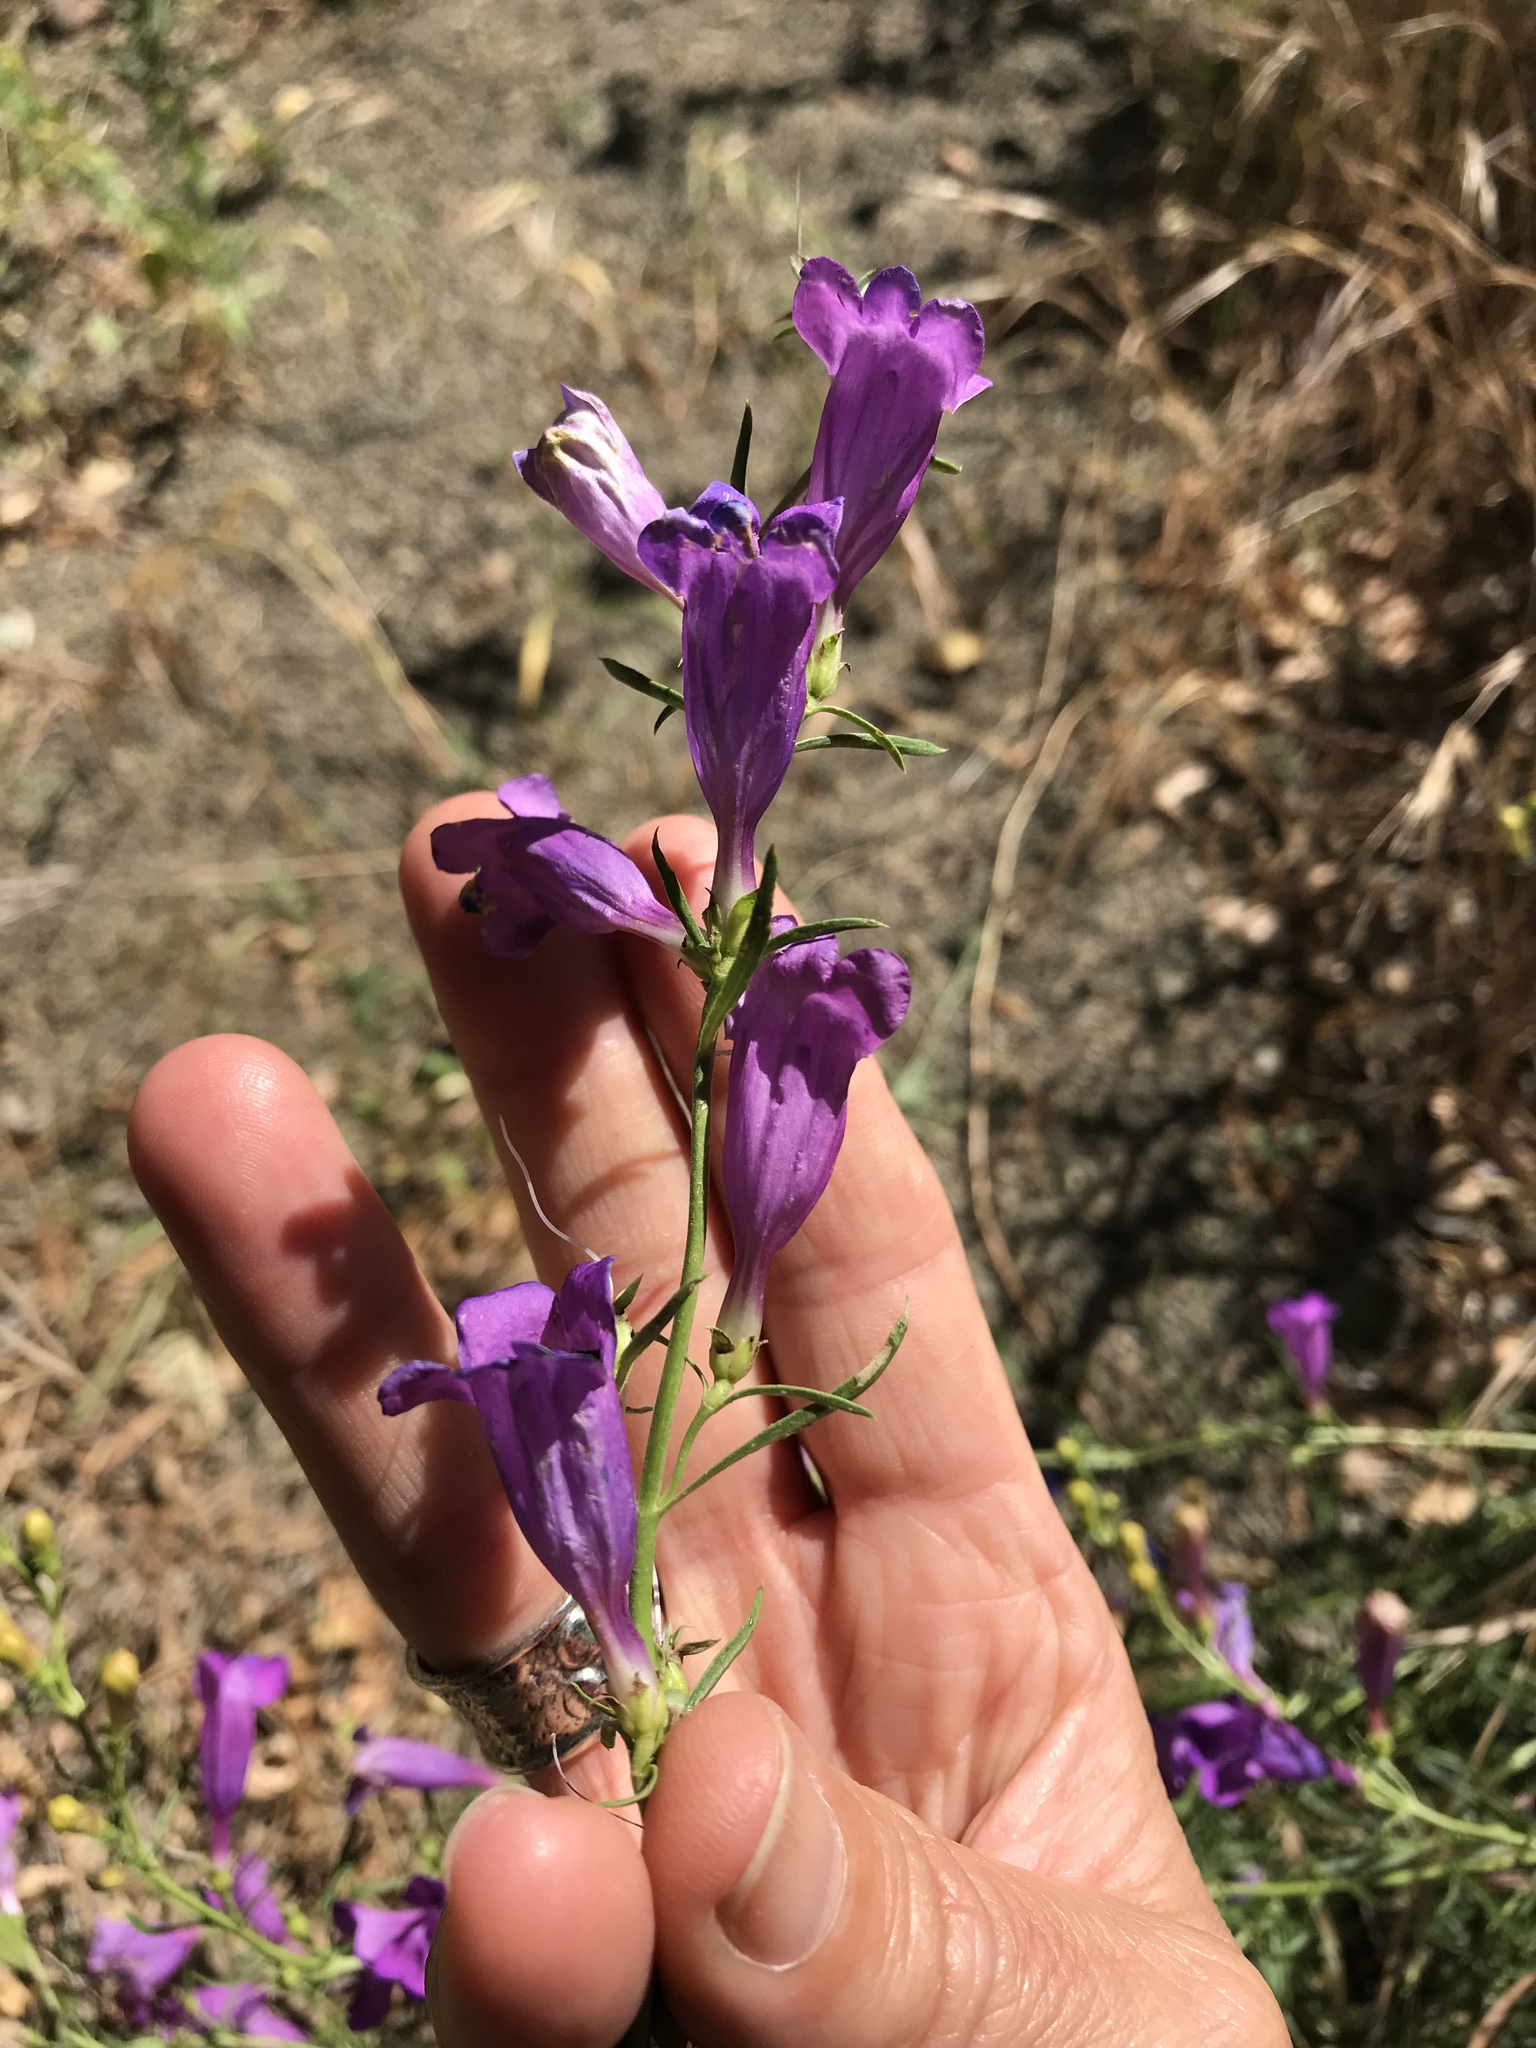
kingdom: Plantae
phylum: Tracheophyta
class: Magnoliopsida
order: Lamiales
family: Plantaginaceae
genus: Penstemon
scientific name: Penstemon heterophyllus
